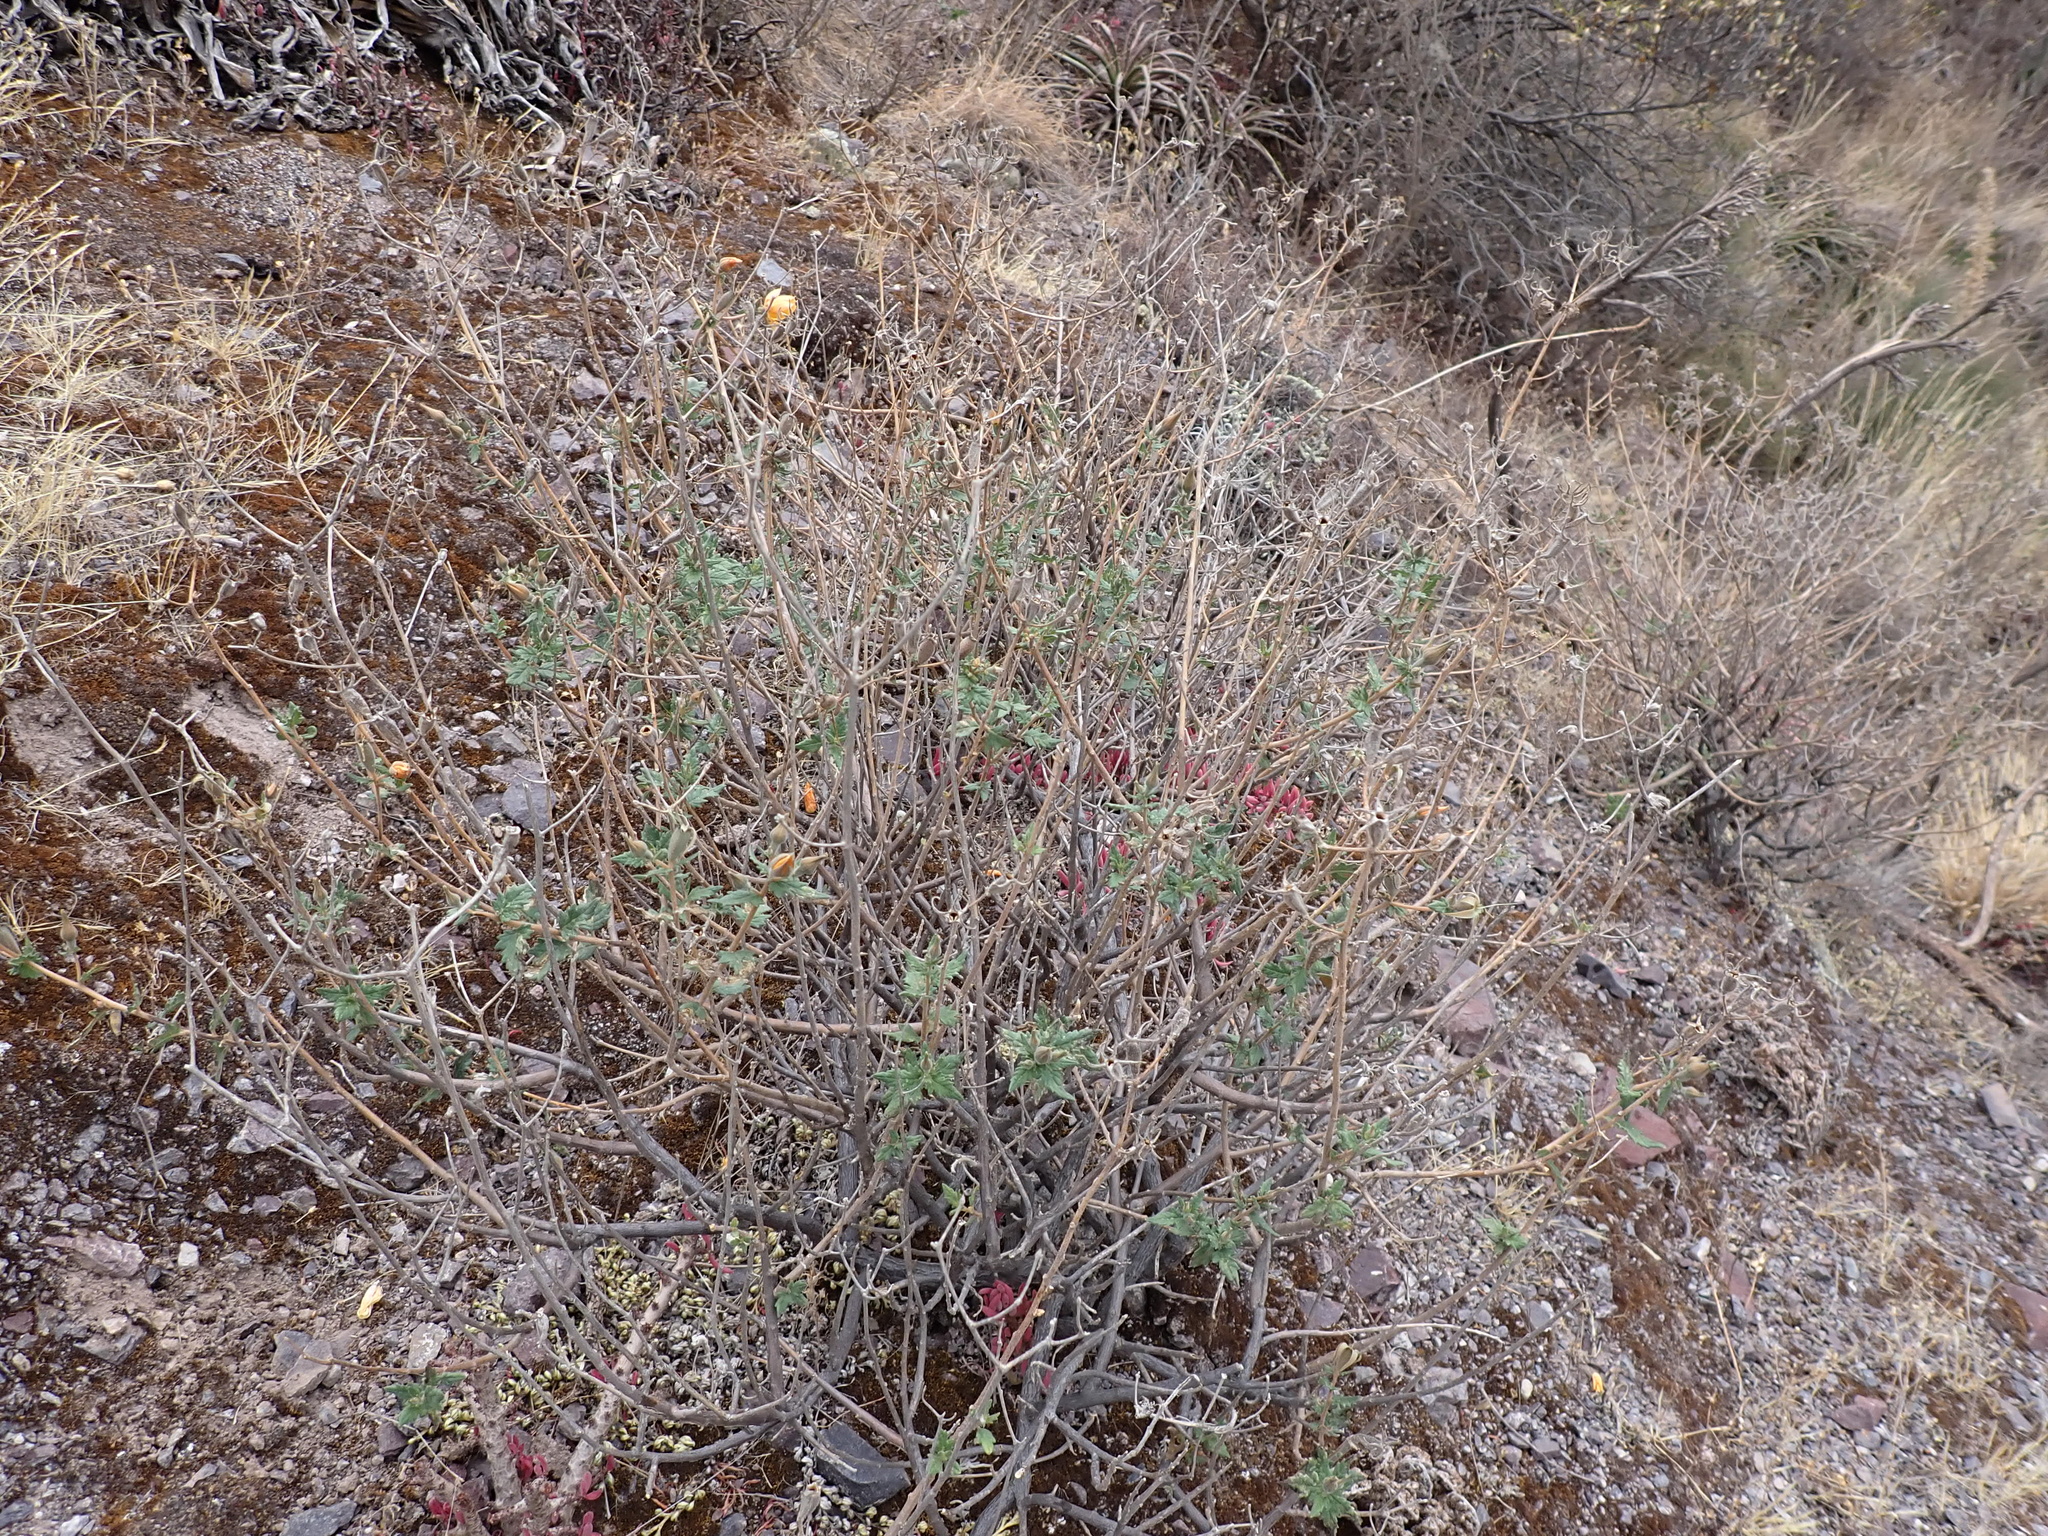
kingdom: Plantae
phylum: Tracheophyta
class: Magnoliopsida
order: Cornales
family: Loasaceae
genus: Mentzelia
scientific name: Mentzelia scabra
